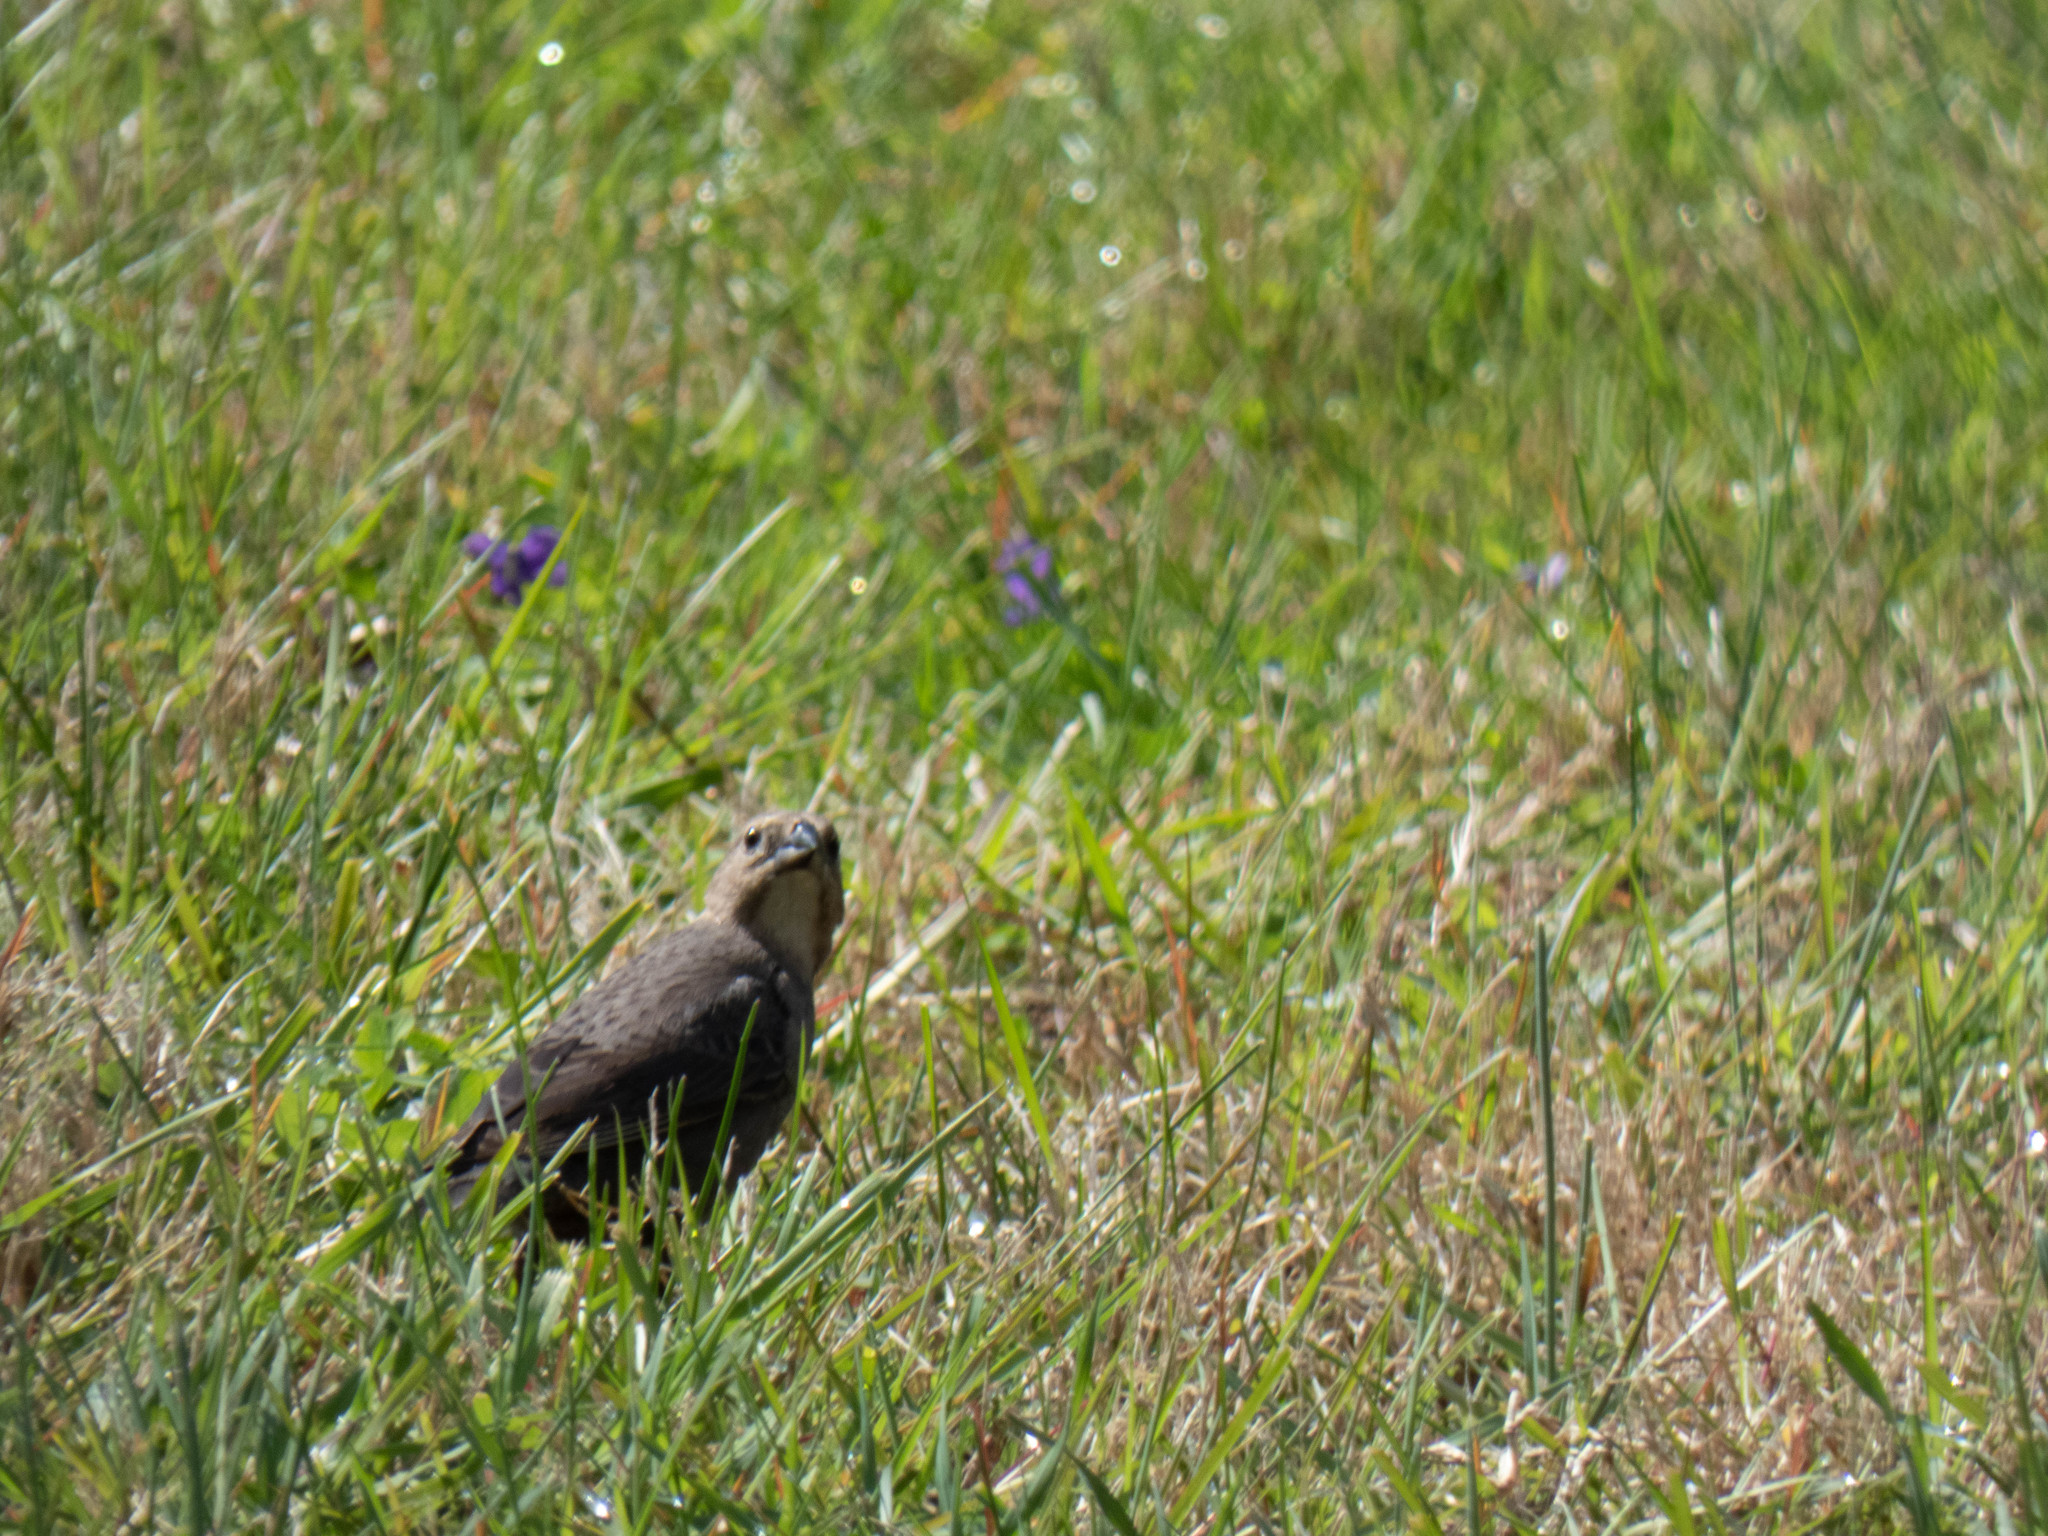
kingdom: Animalia
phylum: Chordata
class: Aves
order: Passeriformes
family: Icteridae
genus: Molothrus
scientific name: Molothrus ater
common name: Brown-headed cowbird
